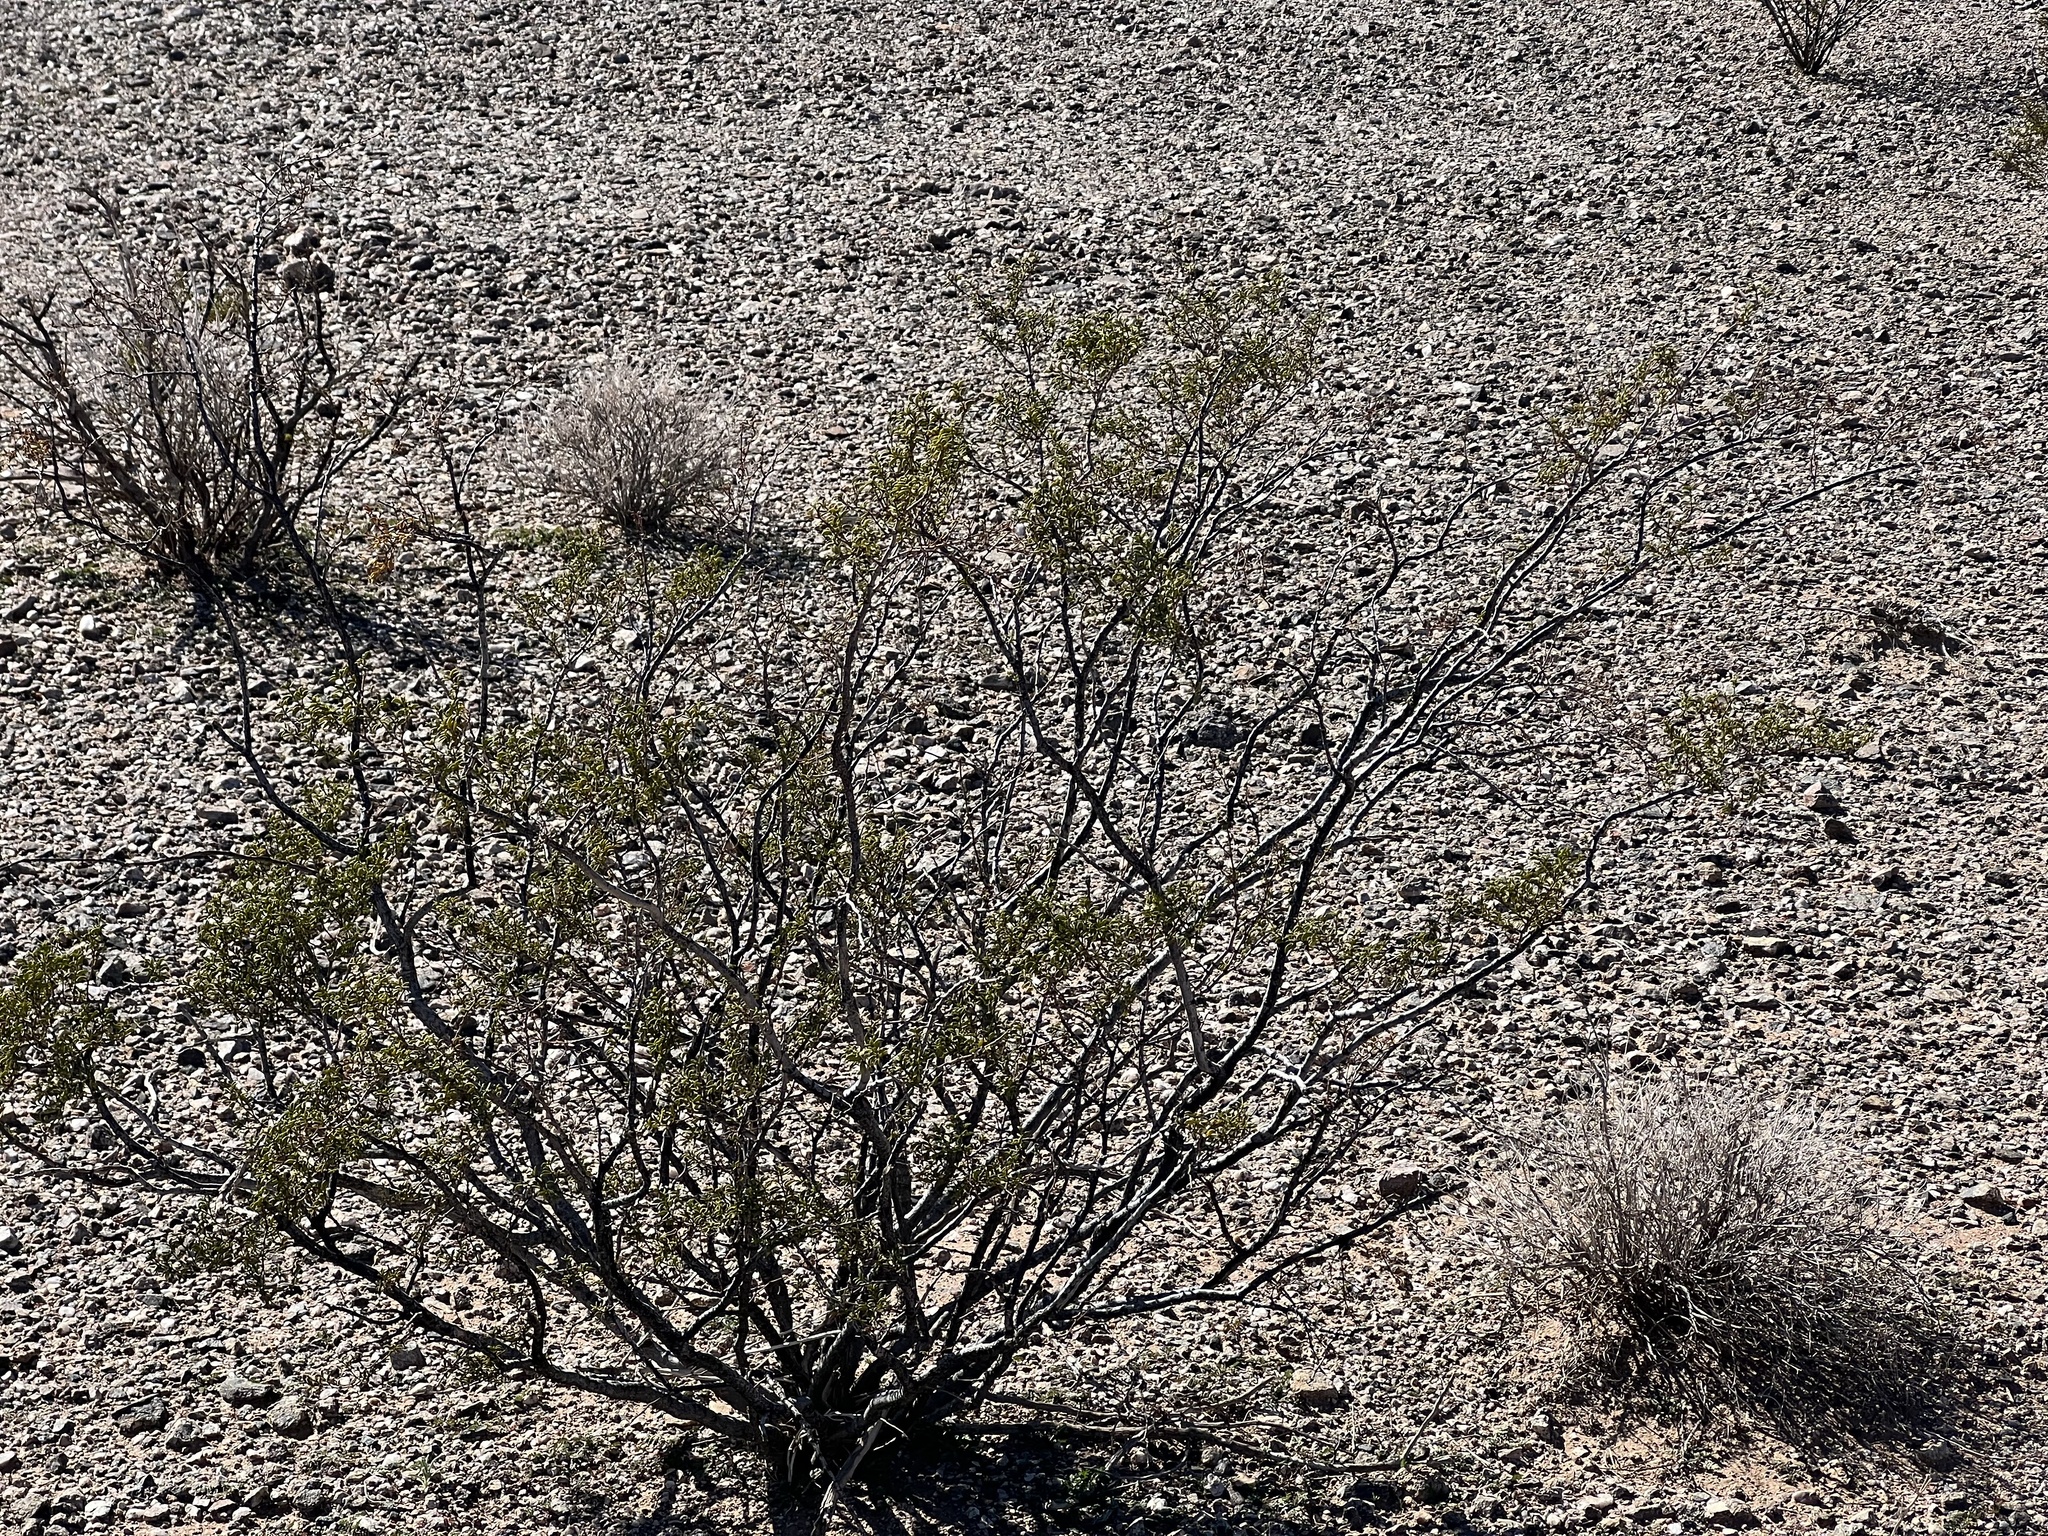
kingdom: Plantae
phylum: Tracheophyta
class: Magnoliopsida
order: Zygophyllales
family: Zygophyllaceae
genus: Larrea
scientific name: Larrea tridentata
